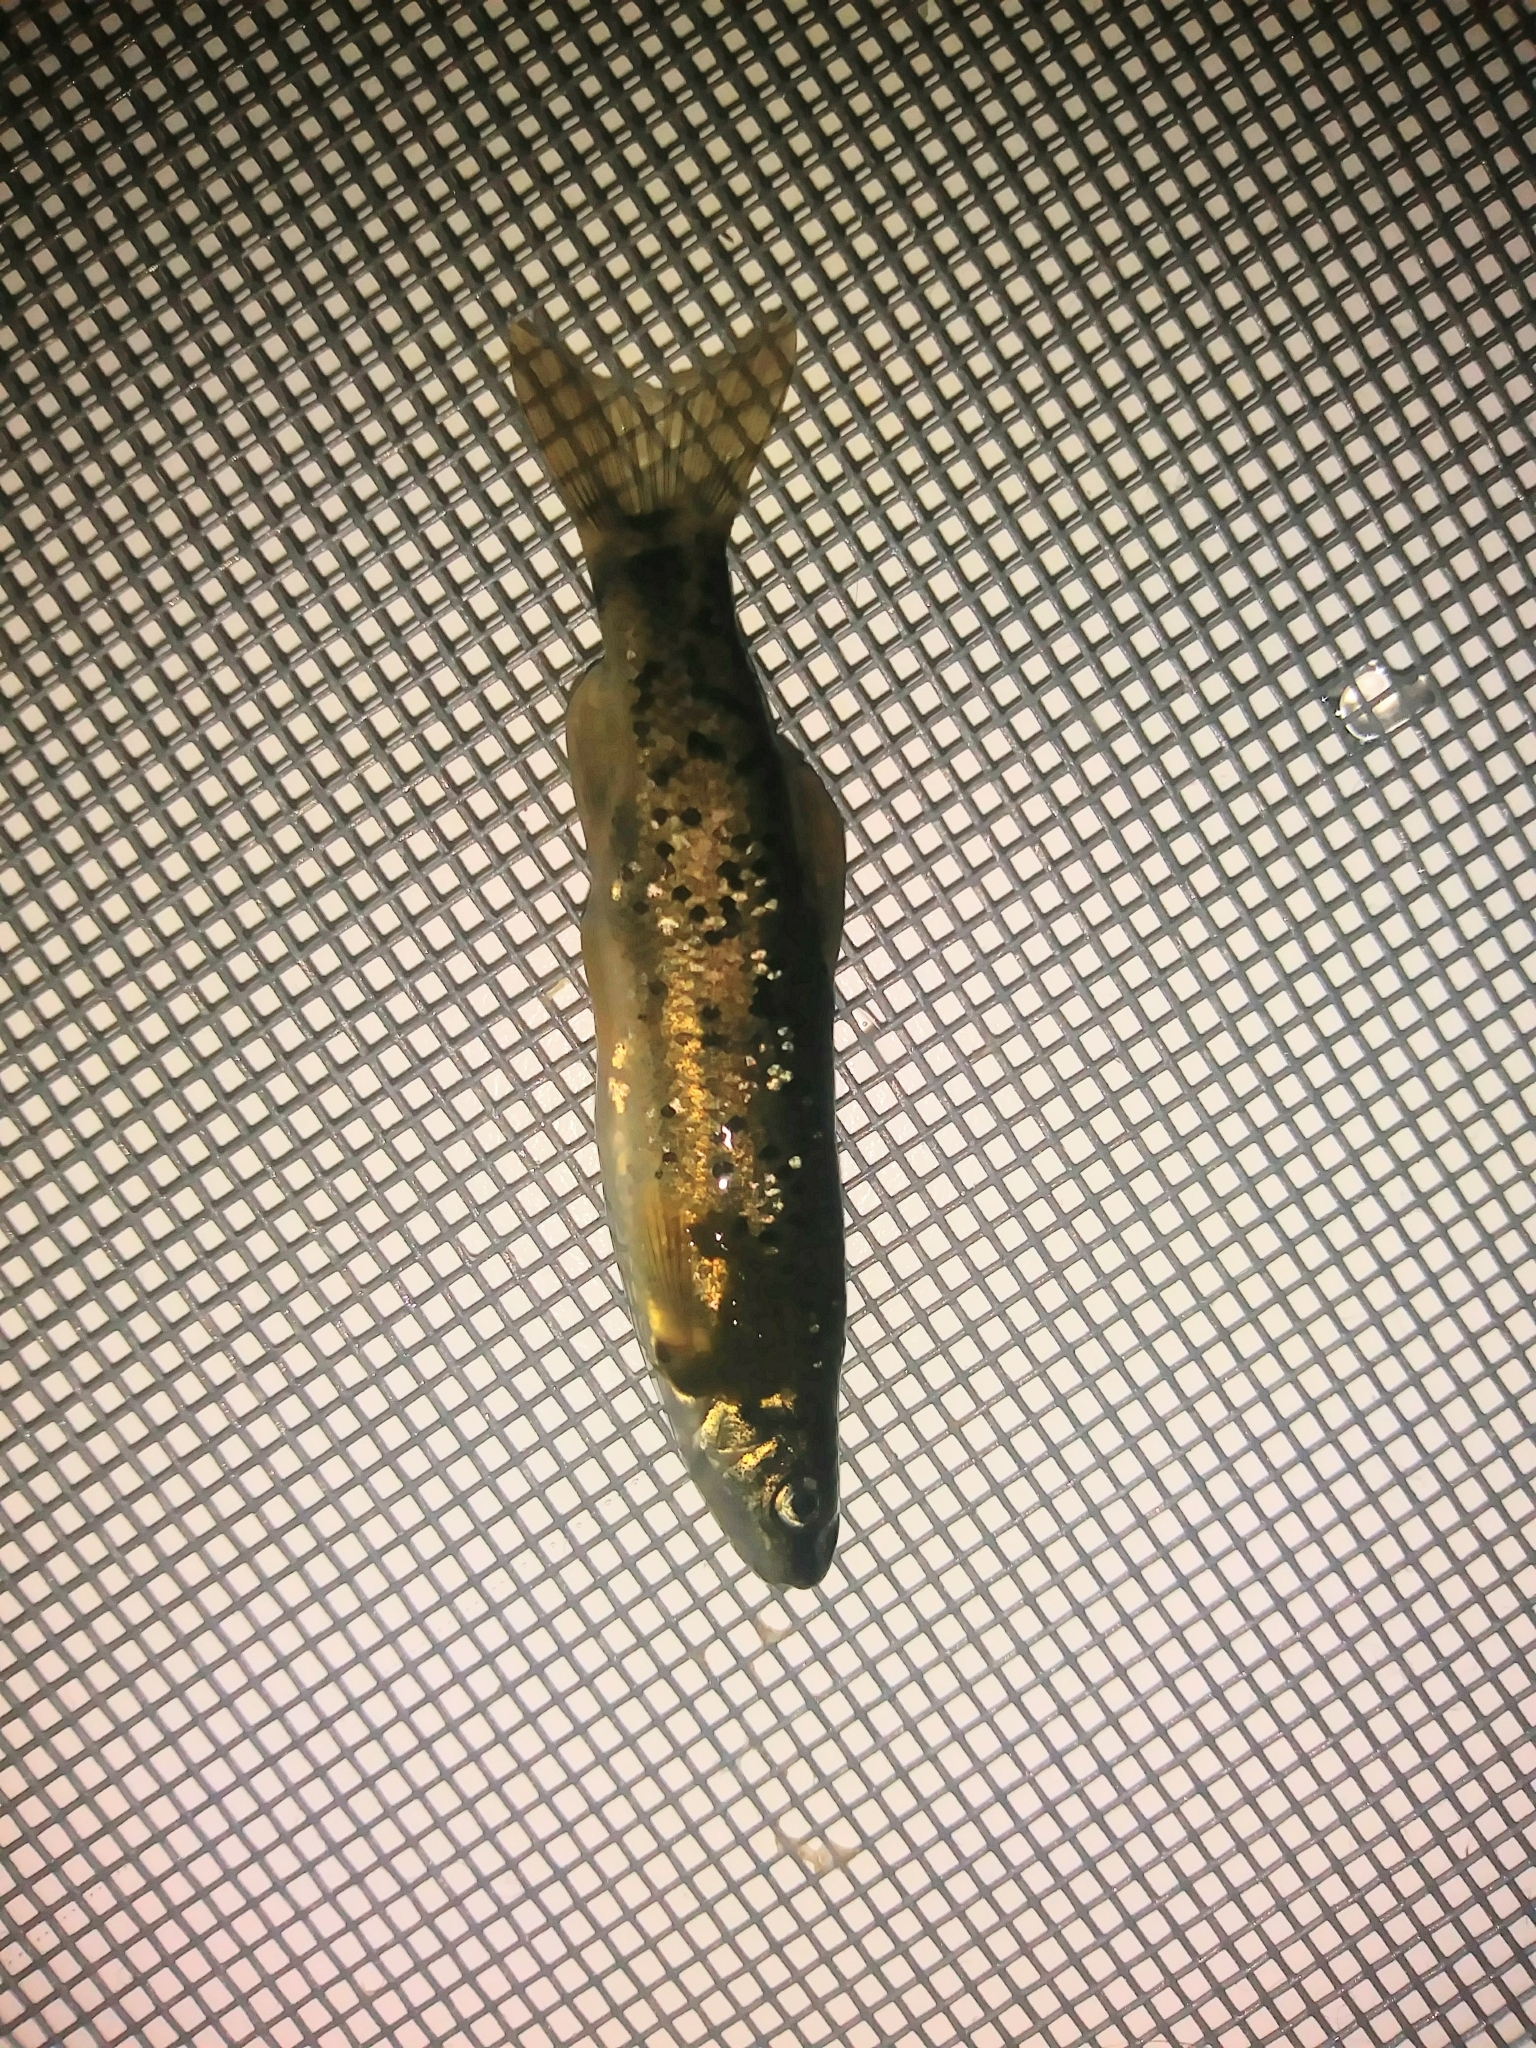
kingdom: Animalia
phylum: Chordata
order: Cypriniformes
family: Cyprinidae
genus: Rhinichthys
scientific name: Rhinichthys osculus
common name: Speckled dace
